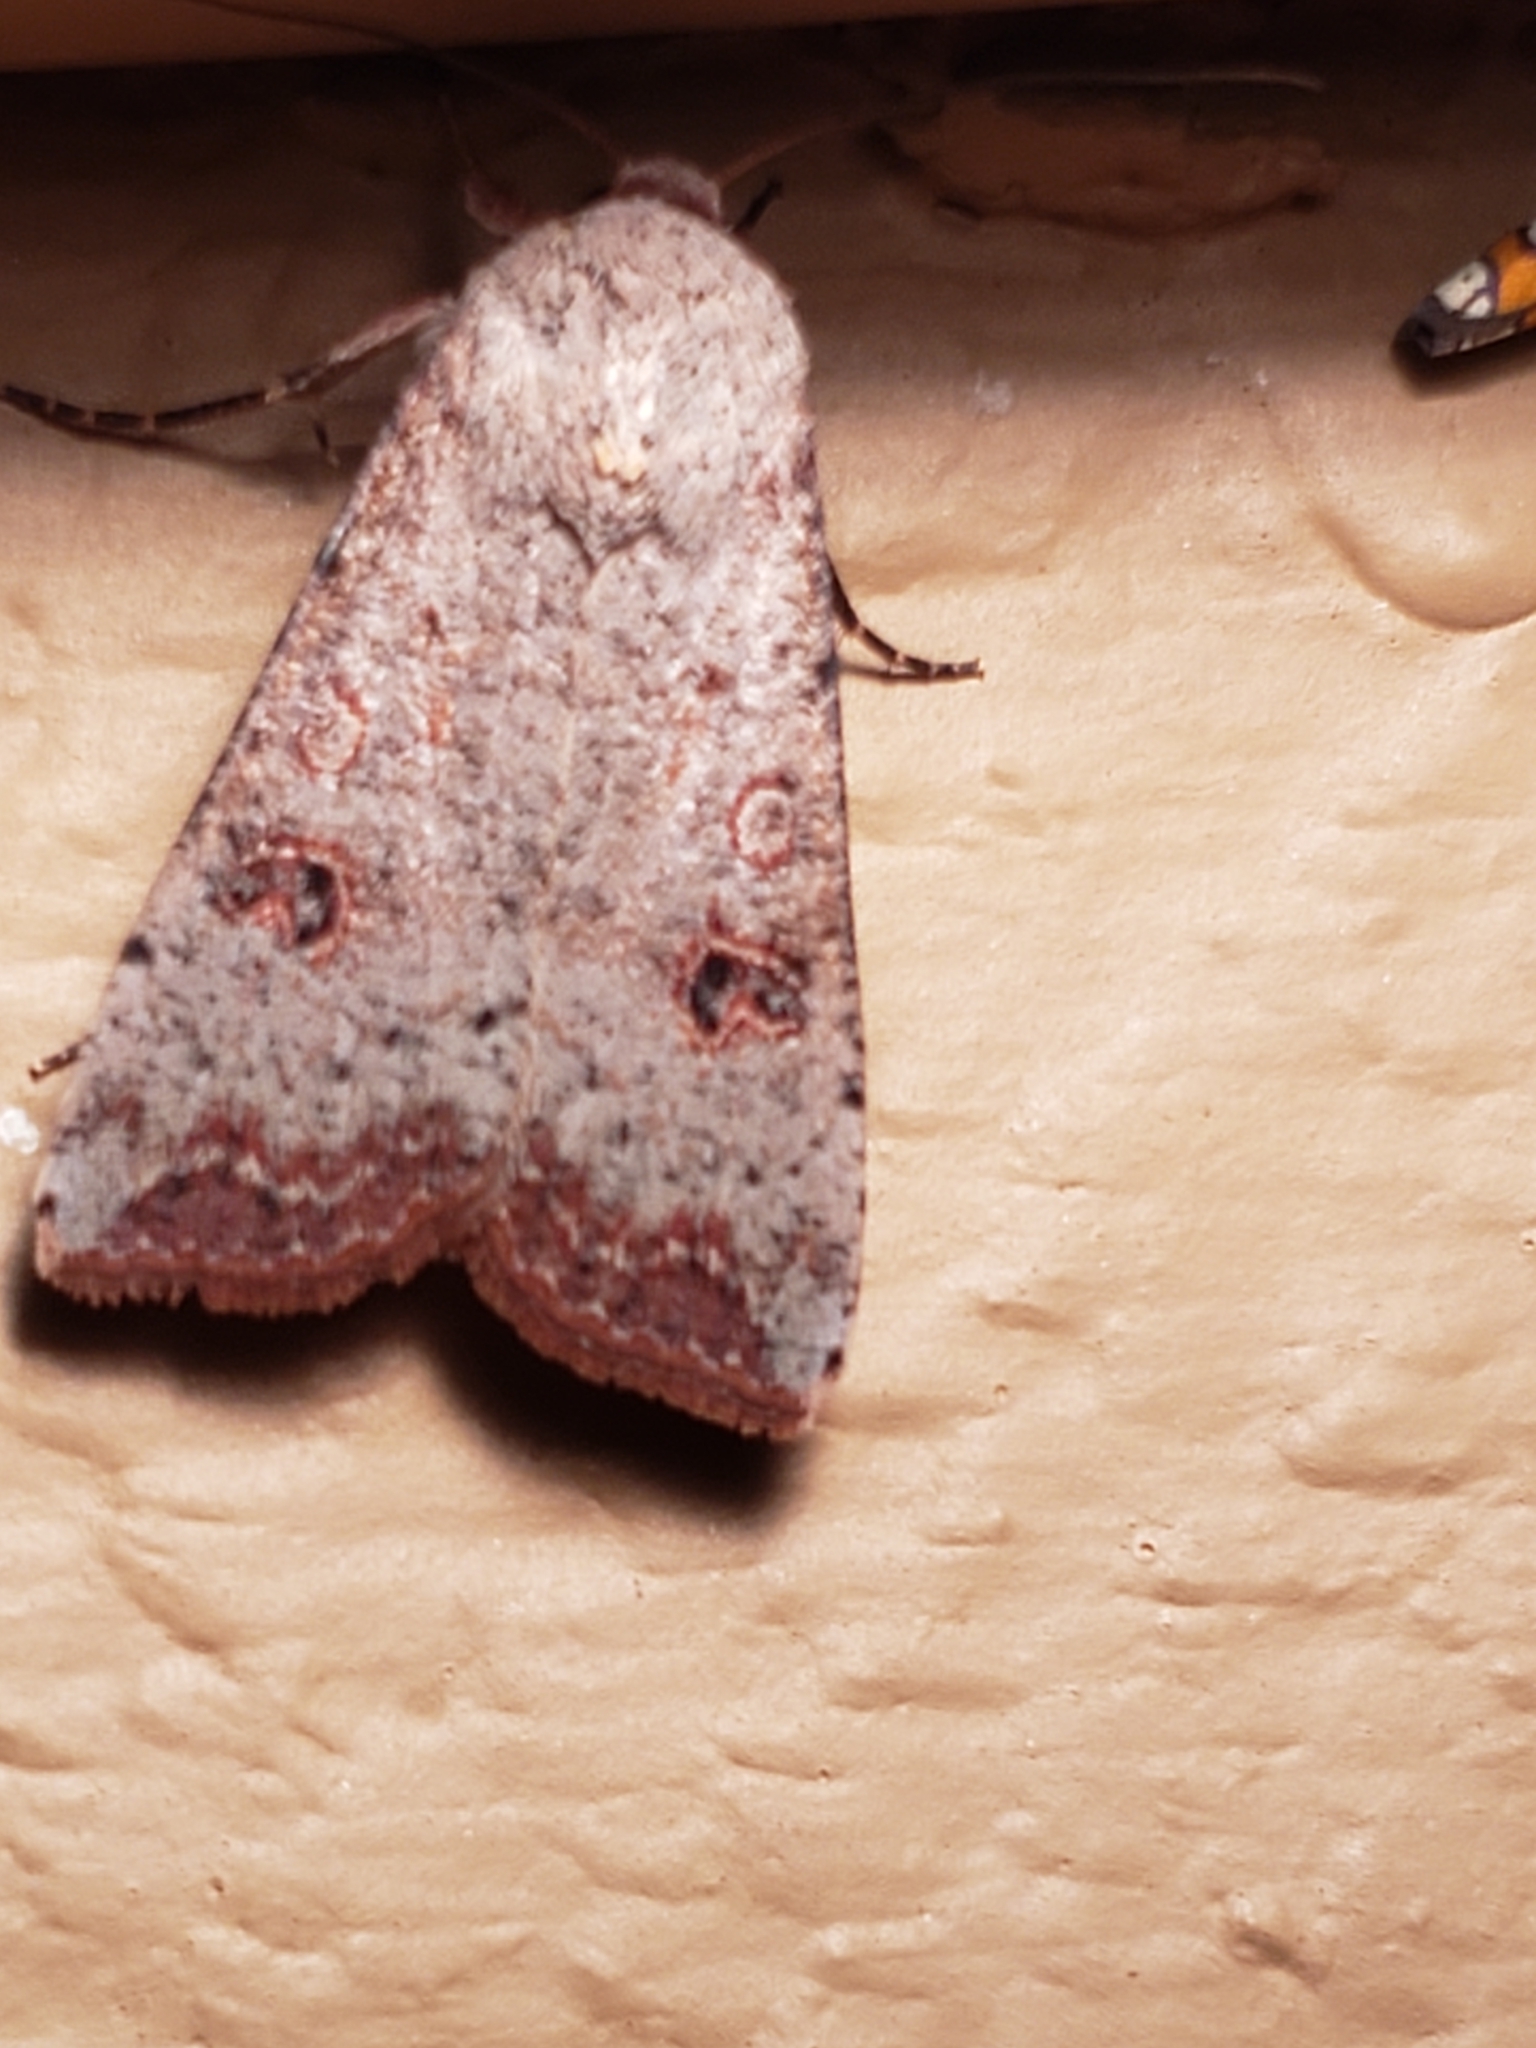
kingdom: Animalia
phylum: Arthropoda
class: Insecta
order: Lepidoptera
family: Noctuidae
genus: Anicla
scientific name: Anicla infecta
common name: Green cutworm
